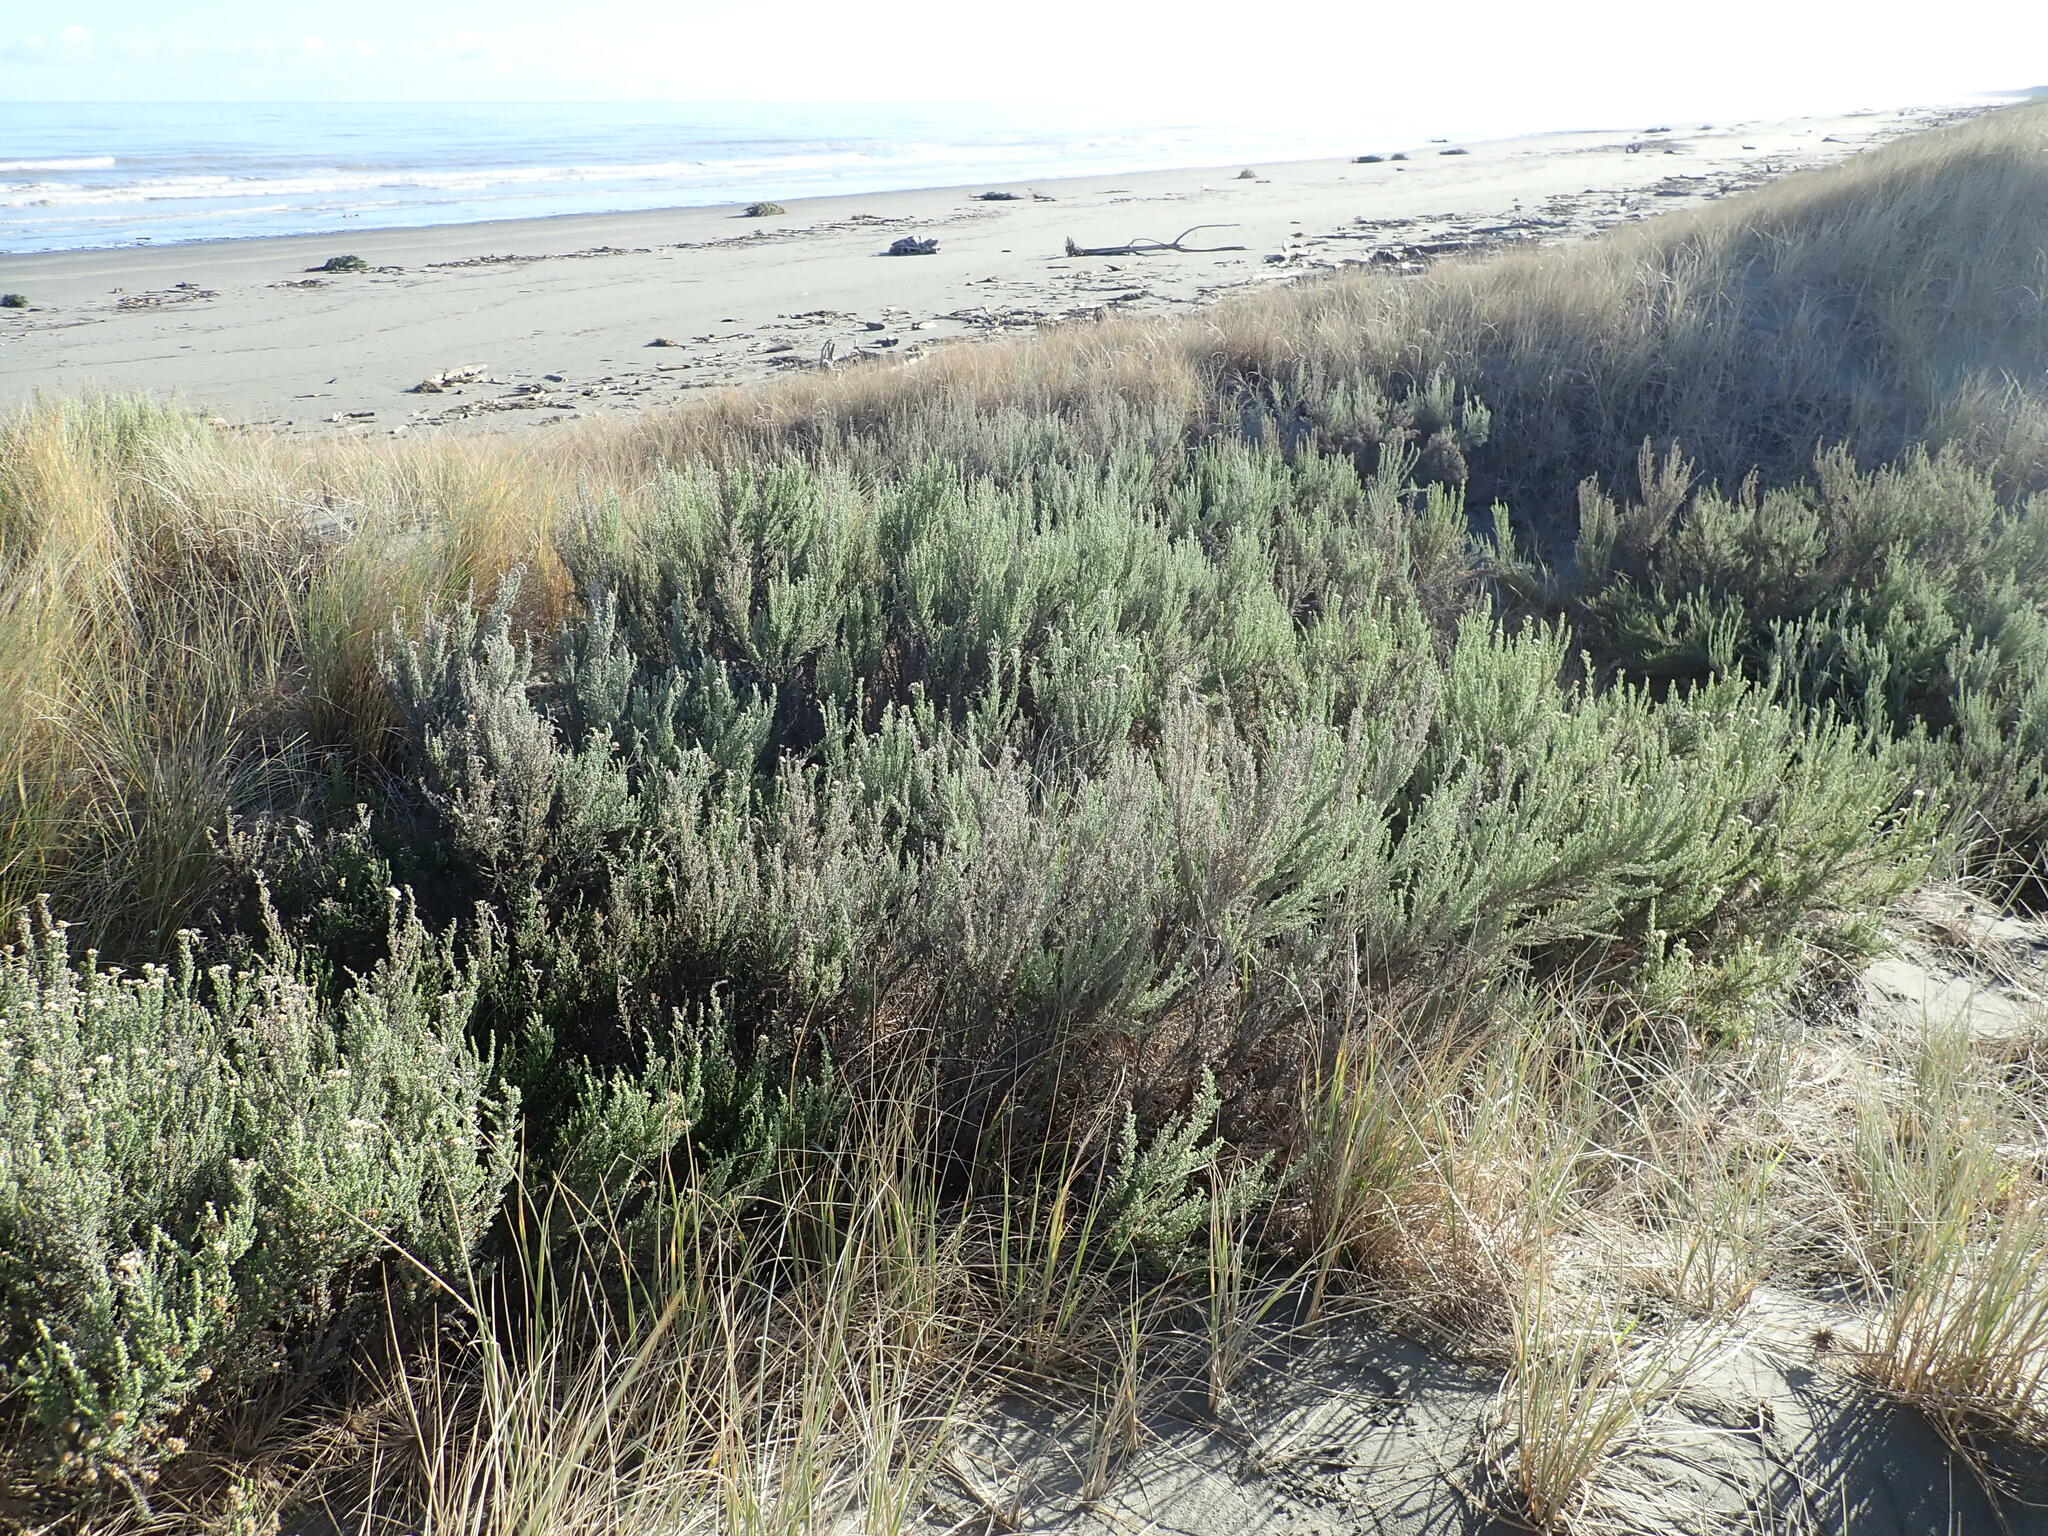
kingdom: Plantae
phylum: Tracheophyta
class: Magnoliopsida
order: Asterales
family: Asteraceae
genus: Ozothamnus
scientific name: Ozothamnus leptophyllus
